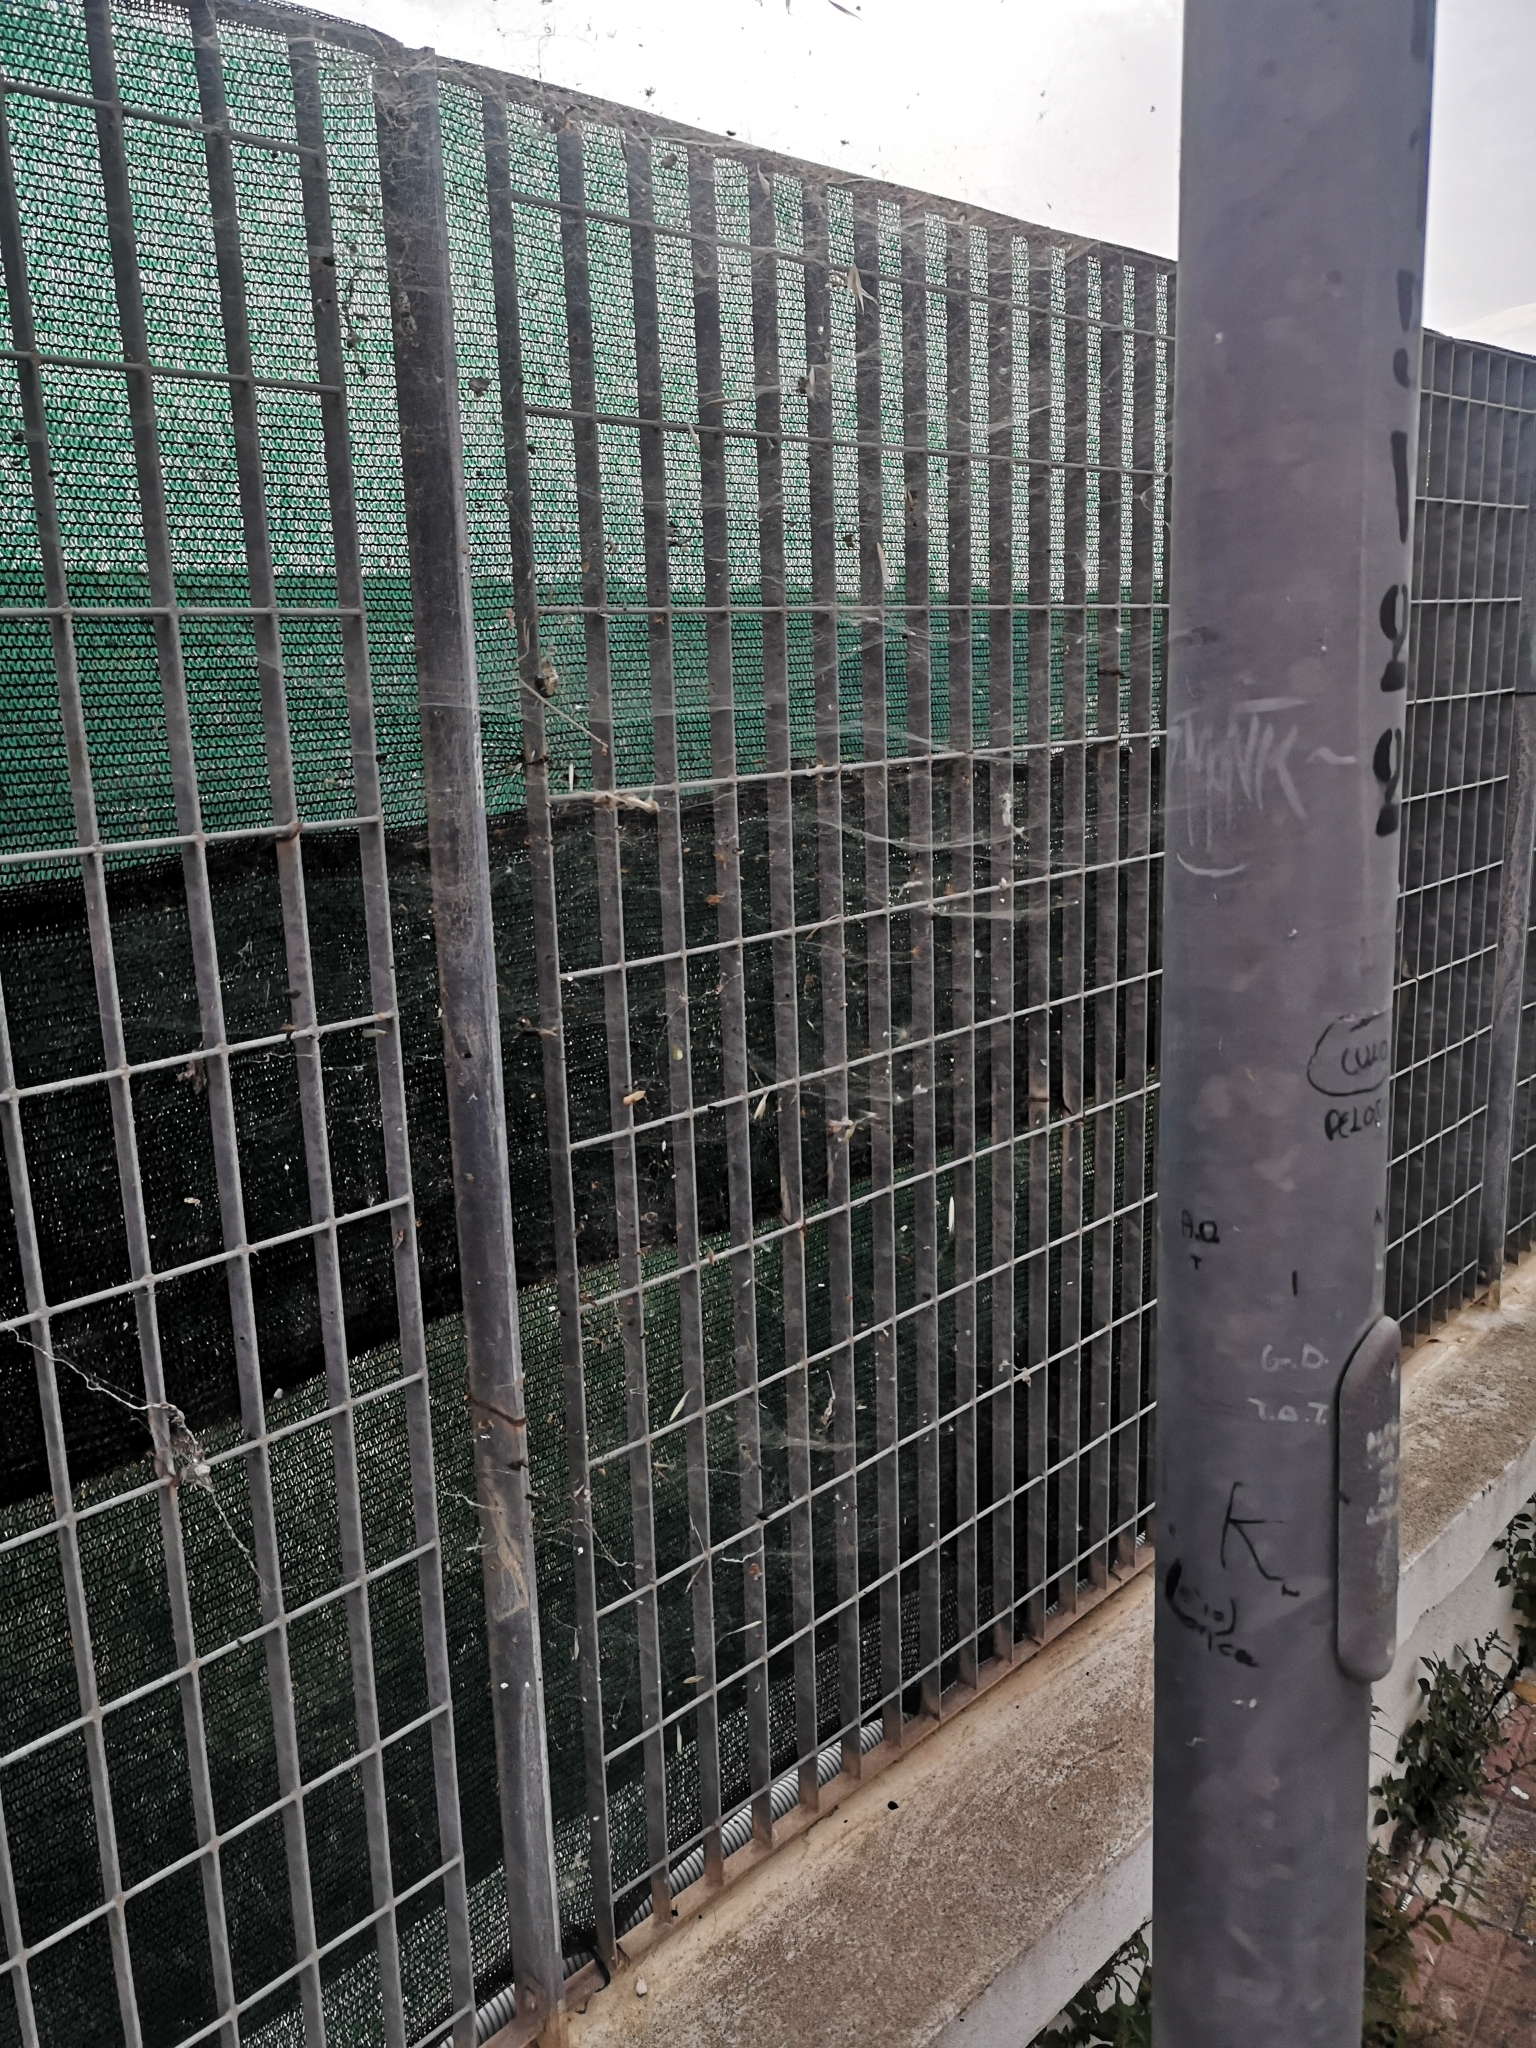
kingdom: Animalia
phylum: Arthropoda
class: Arachnida
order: Araneae
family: Araneidae
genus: Cyrtophora
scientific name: Cyrtophora citricola
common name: Orb weavers
